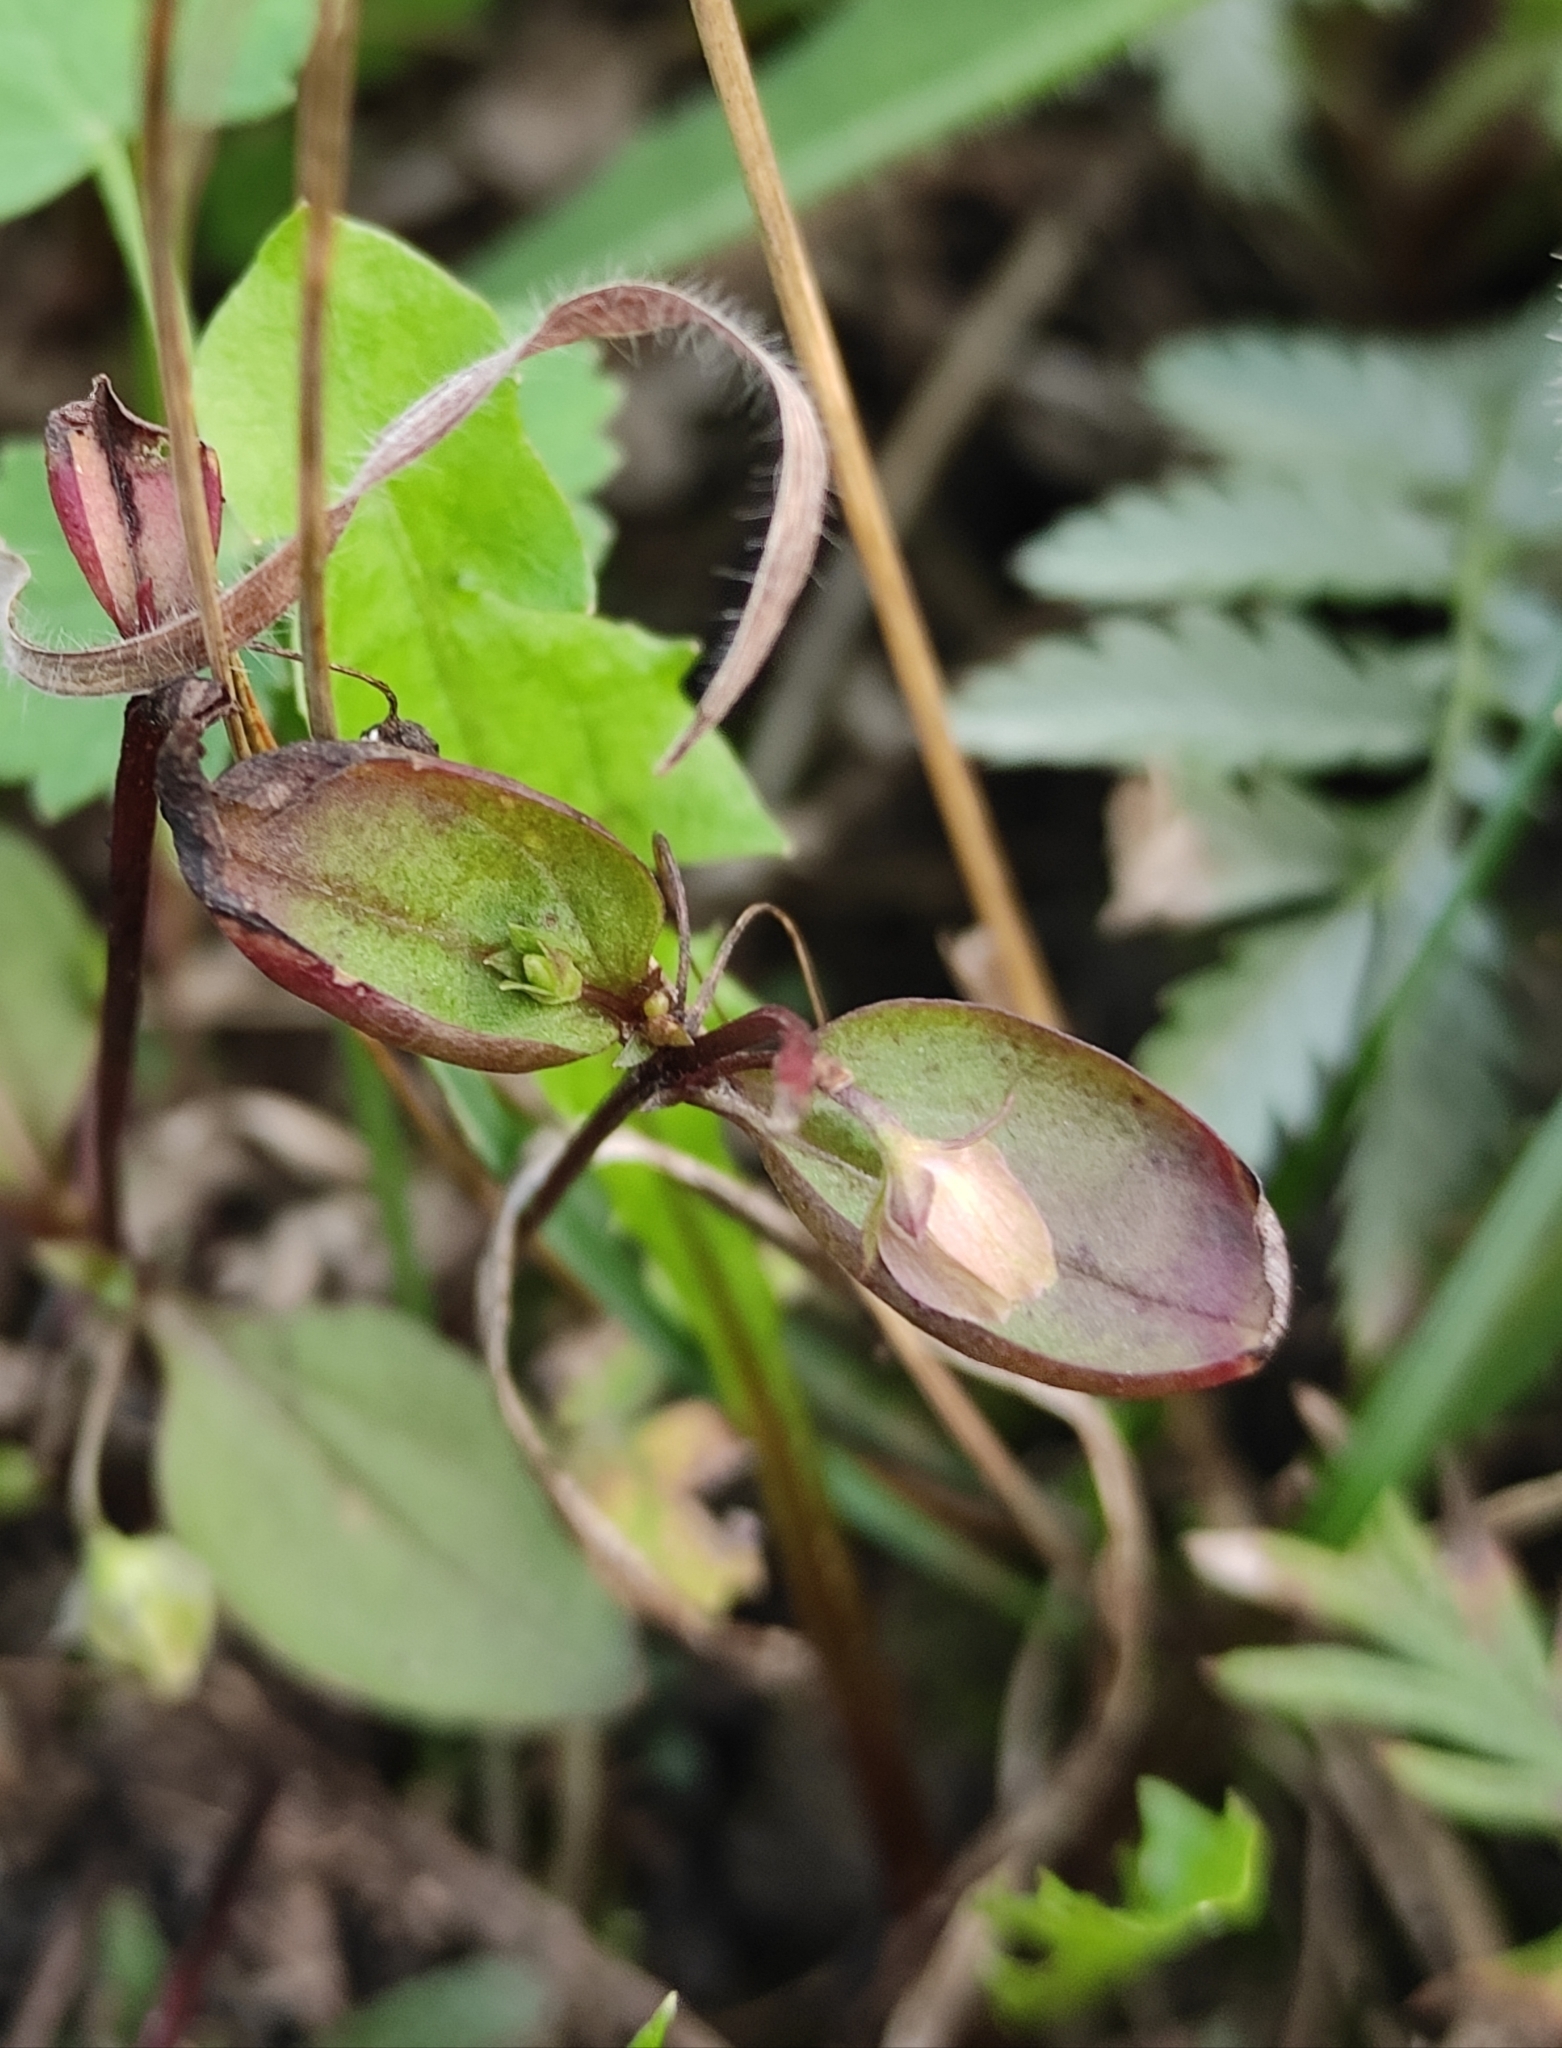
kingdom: Plantae
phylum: Tracheophyta
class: Magnoliopsida
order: Gentianales
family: Gentianaceae
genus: Swertia
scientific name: Swertia dichotoma
